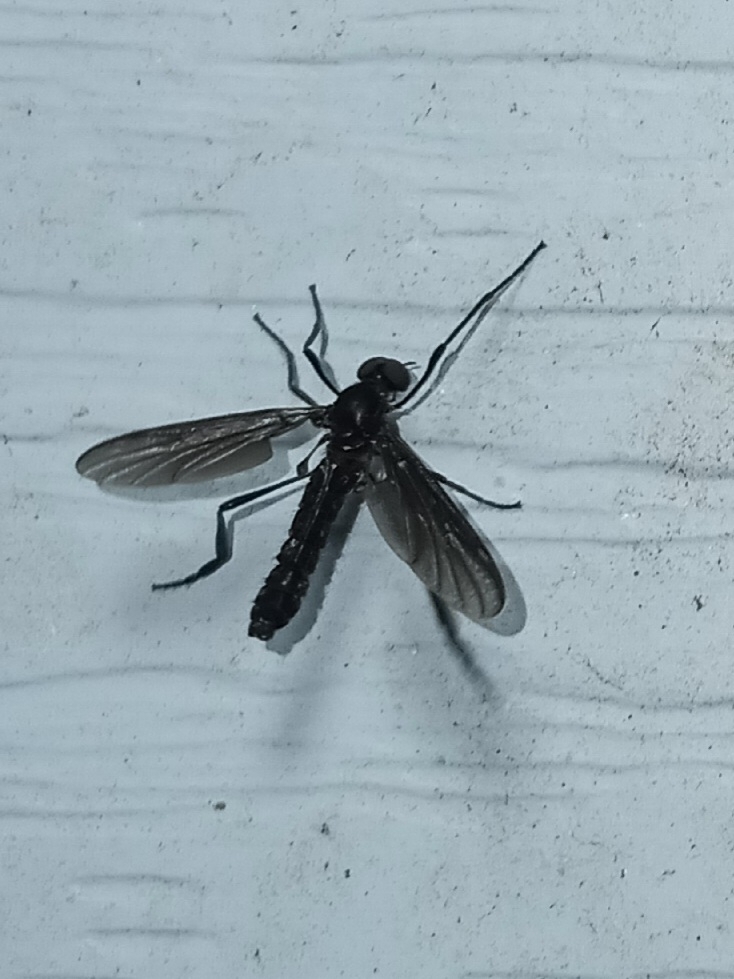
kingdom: Animalia
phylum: Arthropoda
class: Insecta
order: Diptera
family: Bibionidae
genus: Penthetria
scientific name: Penthetria heteroptera
